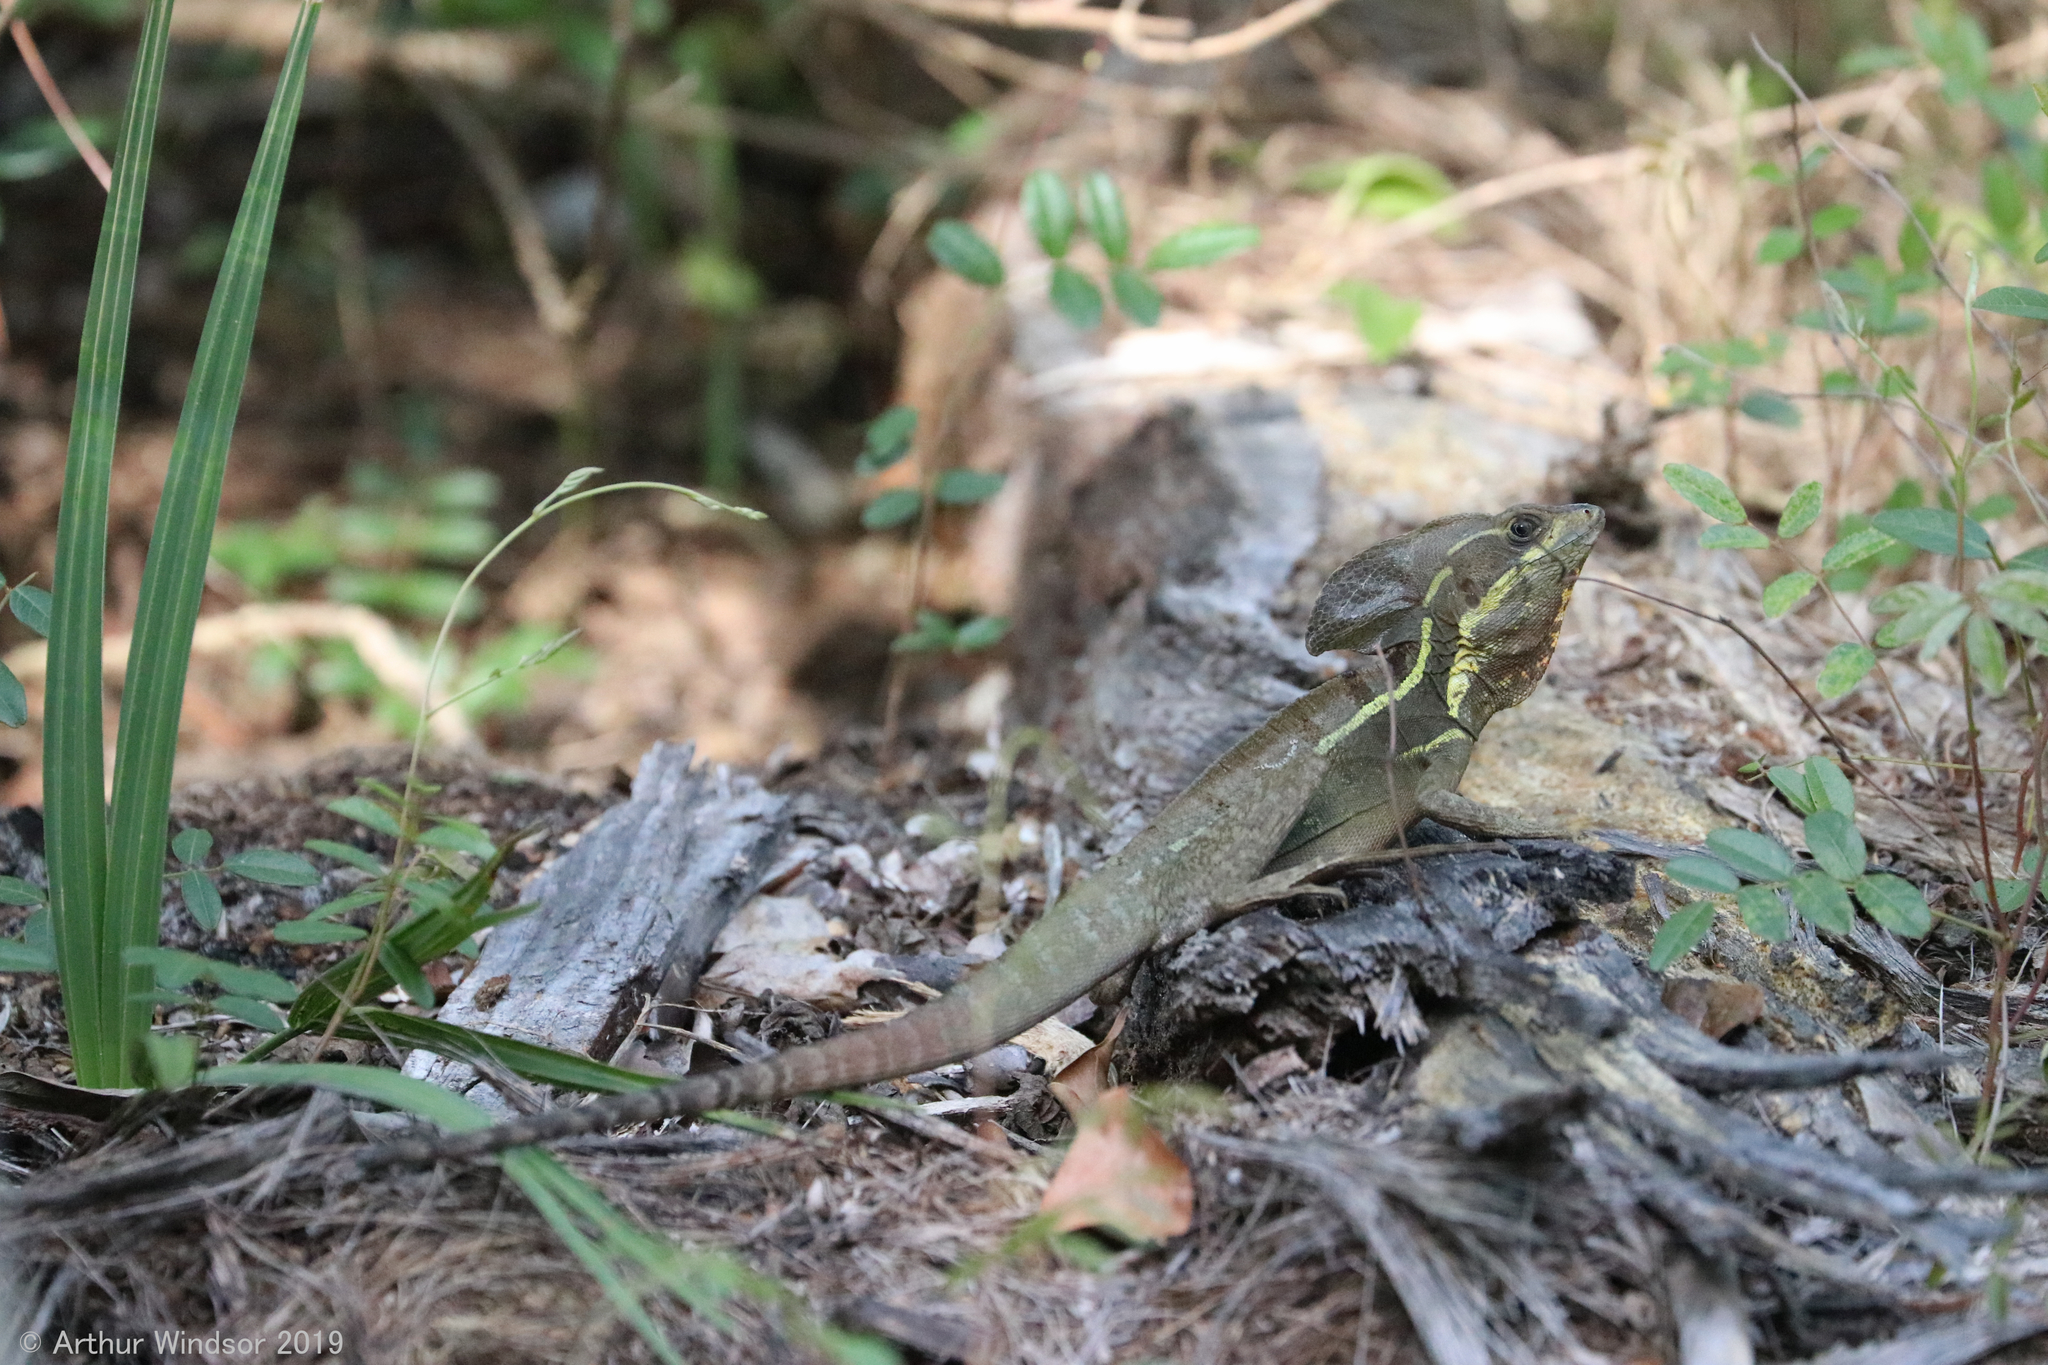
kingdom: Animalia
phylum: Chordata
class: Squamata
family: Corytophanidae
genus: Basiliscus
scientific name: Basiliscus vittatus
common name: Brown basilisk
